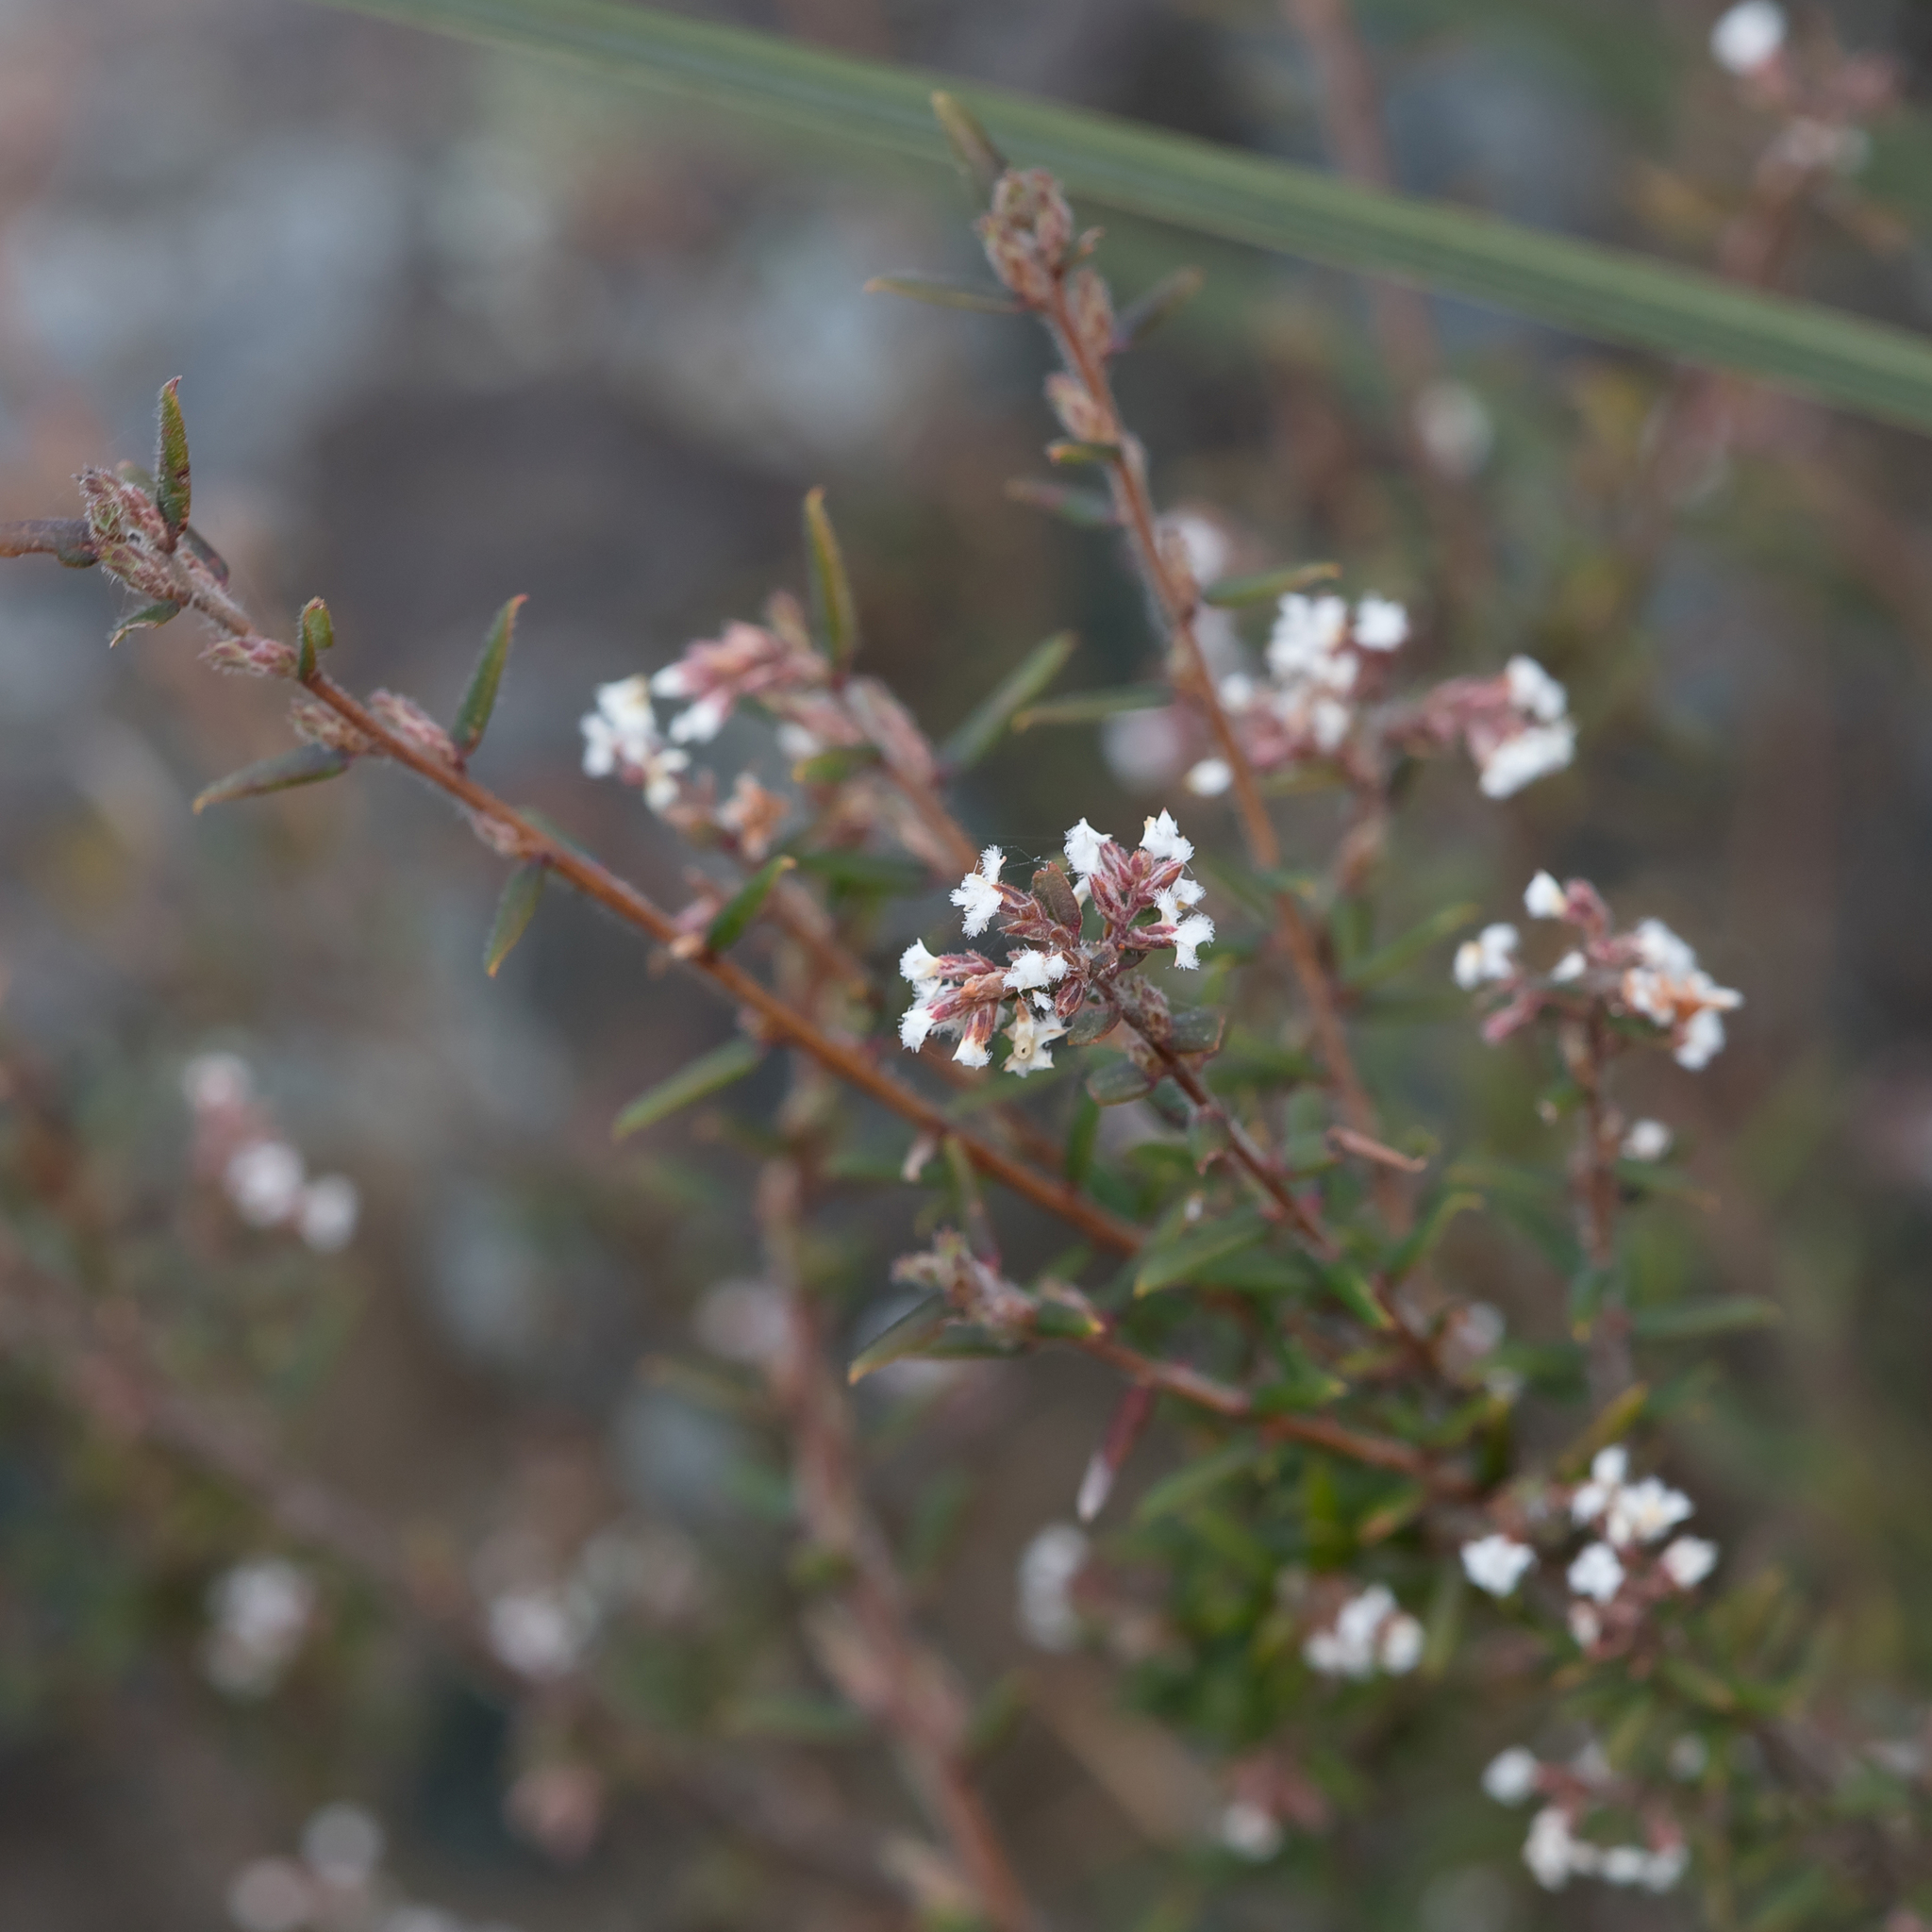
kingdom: Plantae
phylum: Tracheophyta
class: Magnoliopsida
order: Ericales
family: Ericaceae
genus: Leucopogon
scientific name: Leucopogon thymifolius
